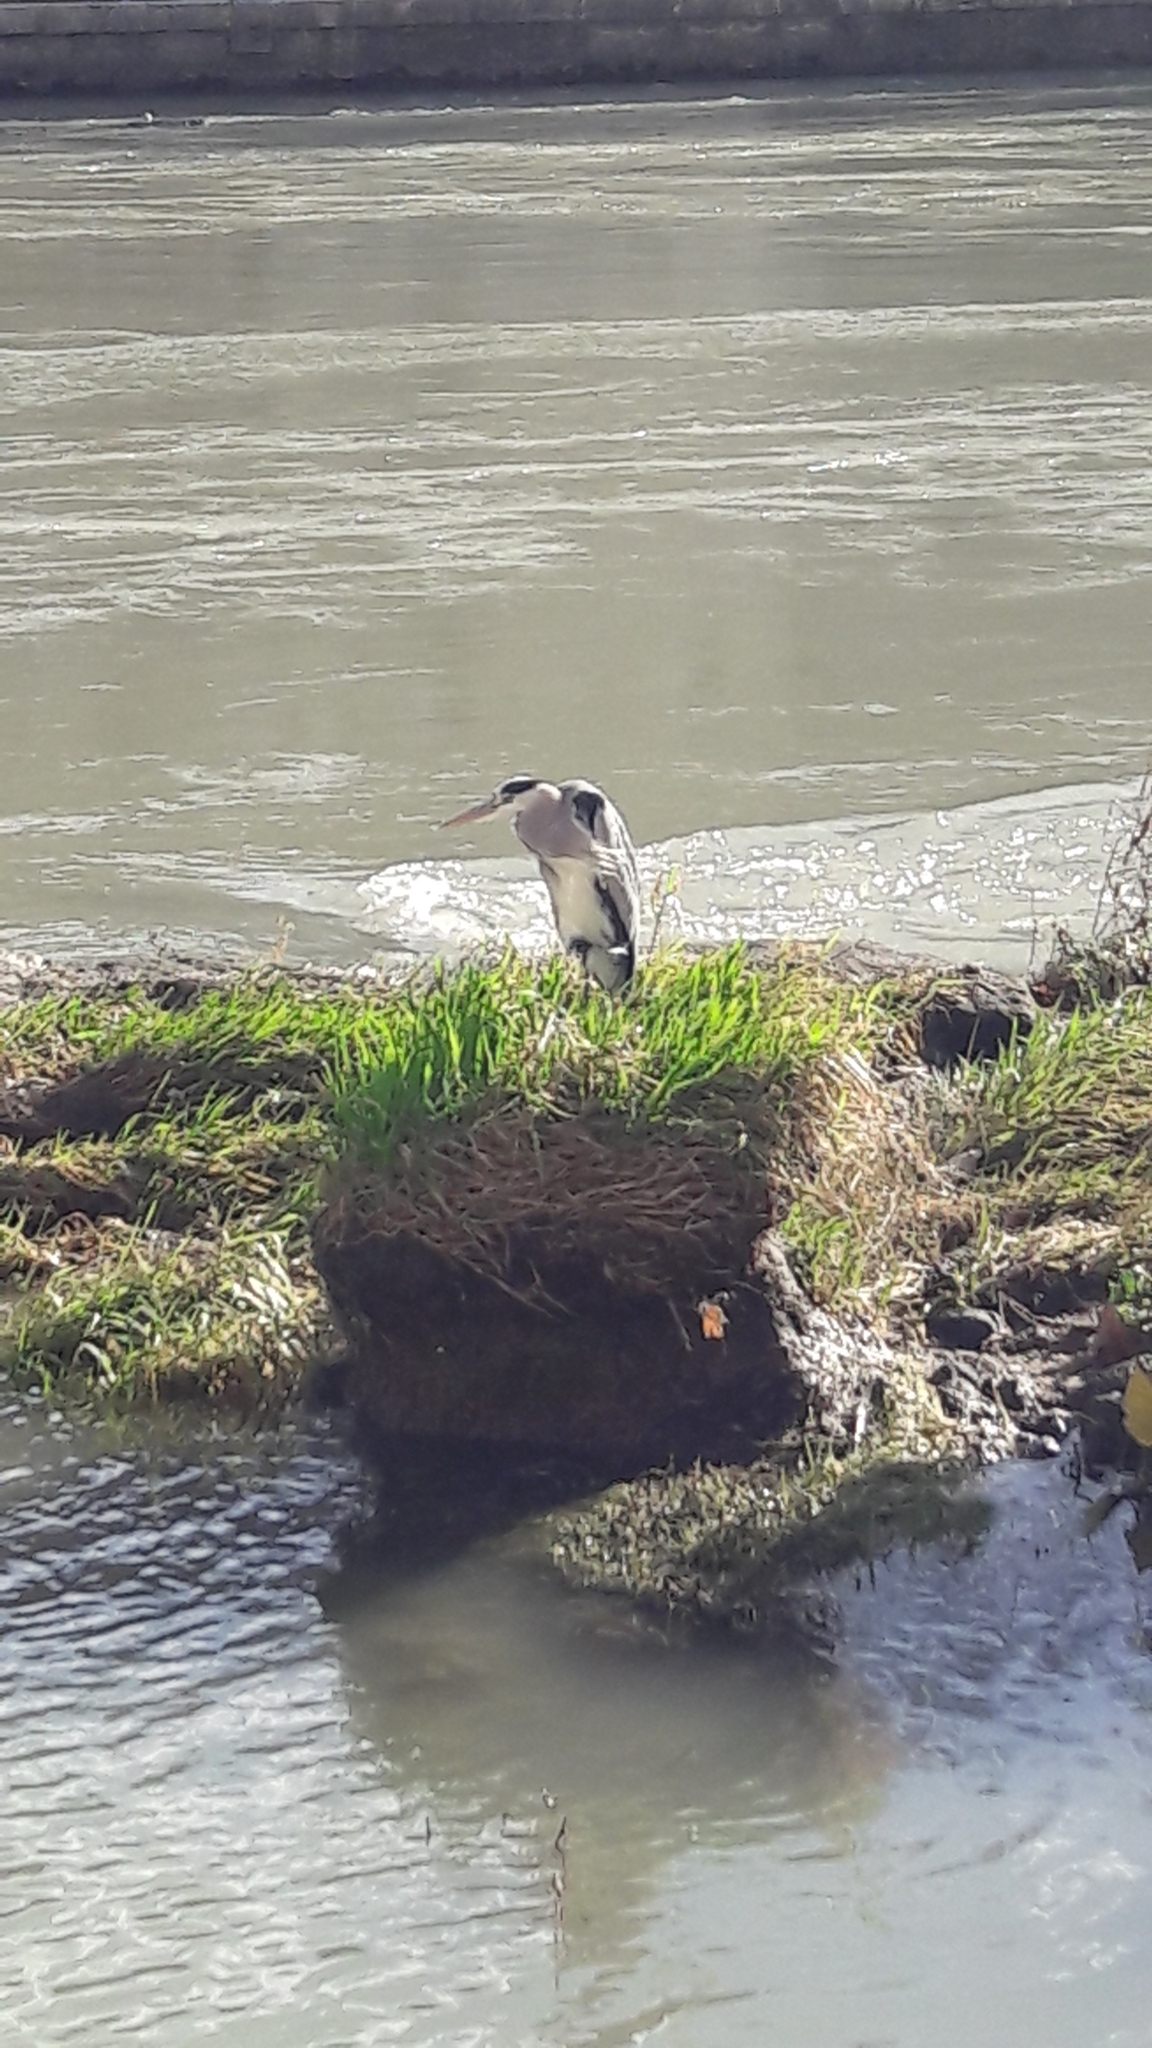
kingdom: Animalia
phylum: Chordata
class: Aves
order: Pelecaniformes
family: Ardeidae
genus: Ardea
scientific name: Ardea cinerea
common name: Grey heron
